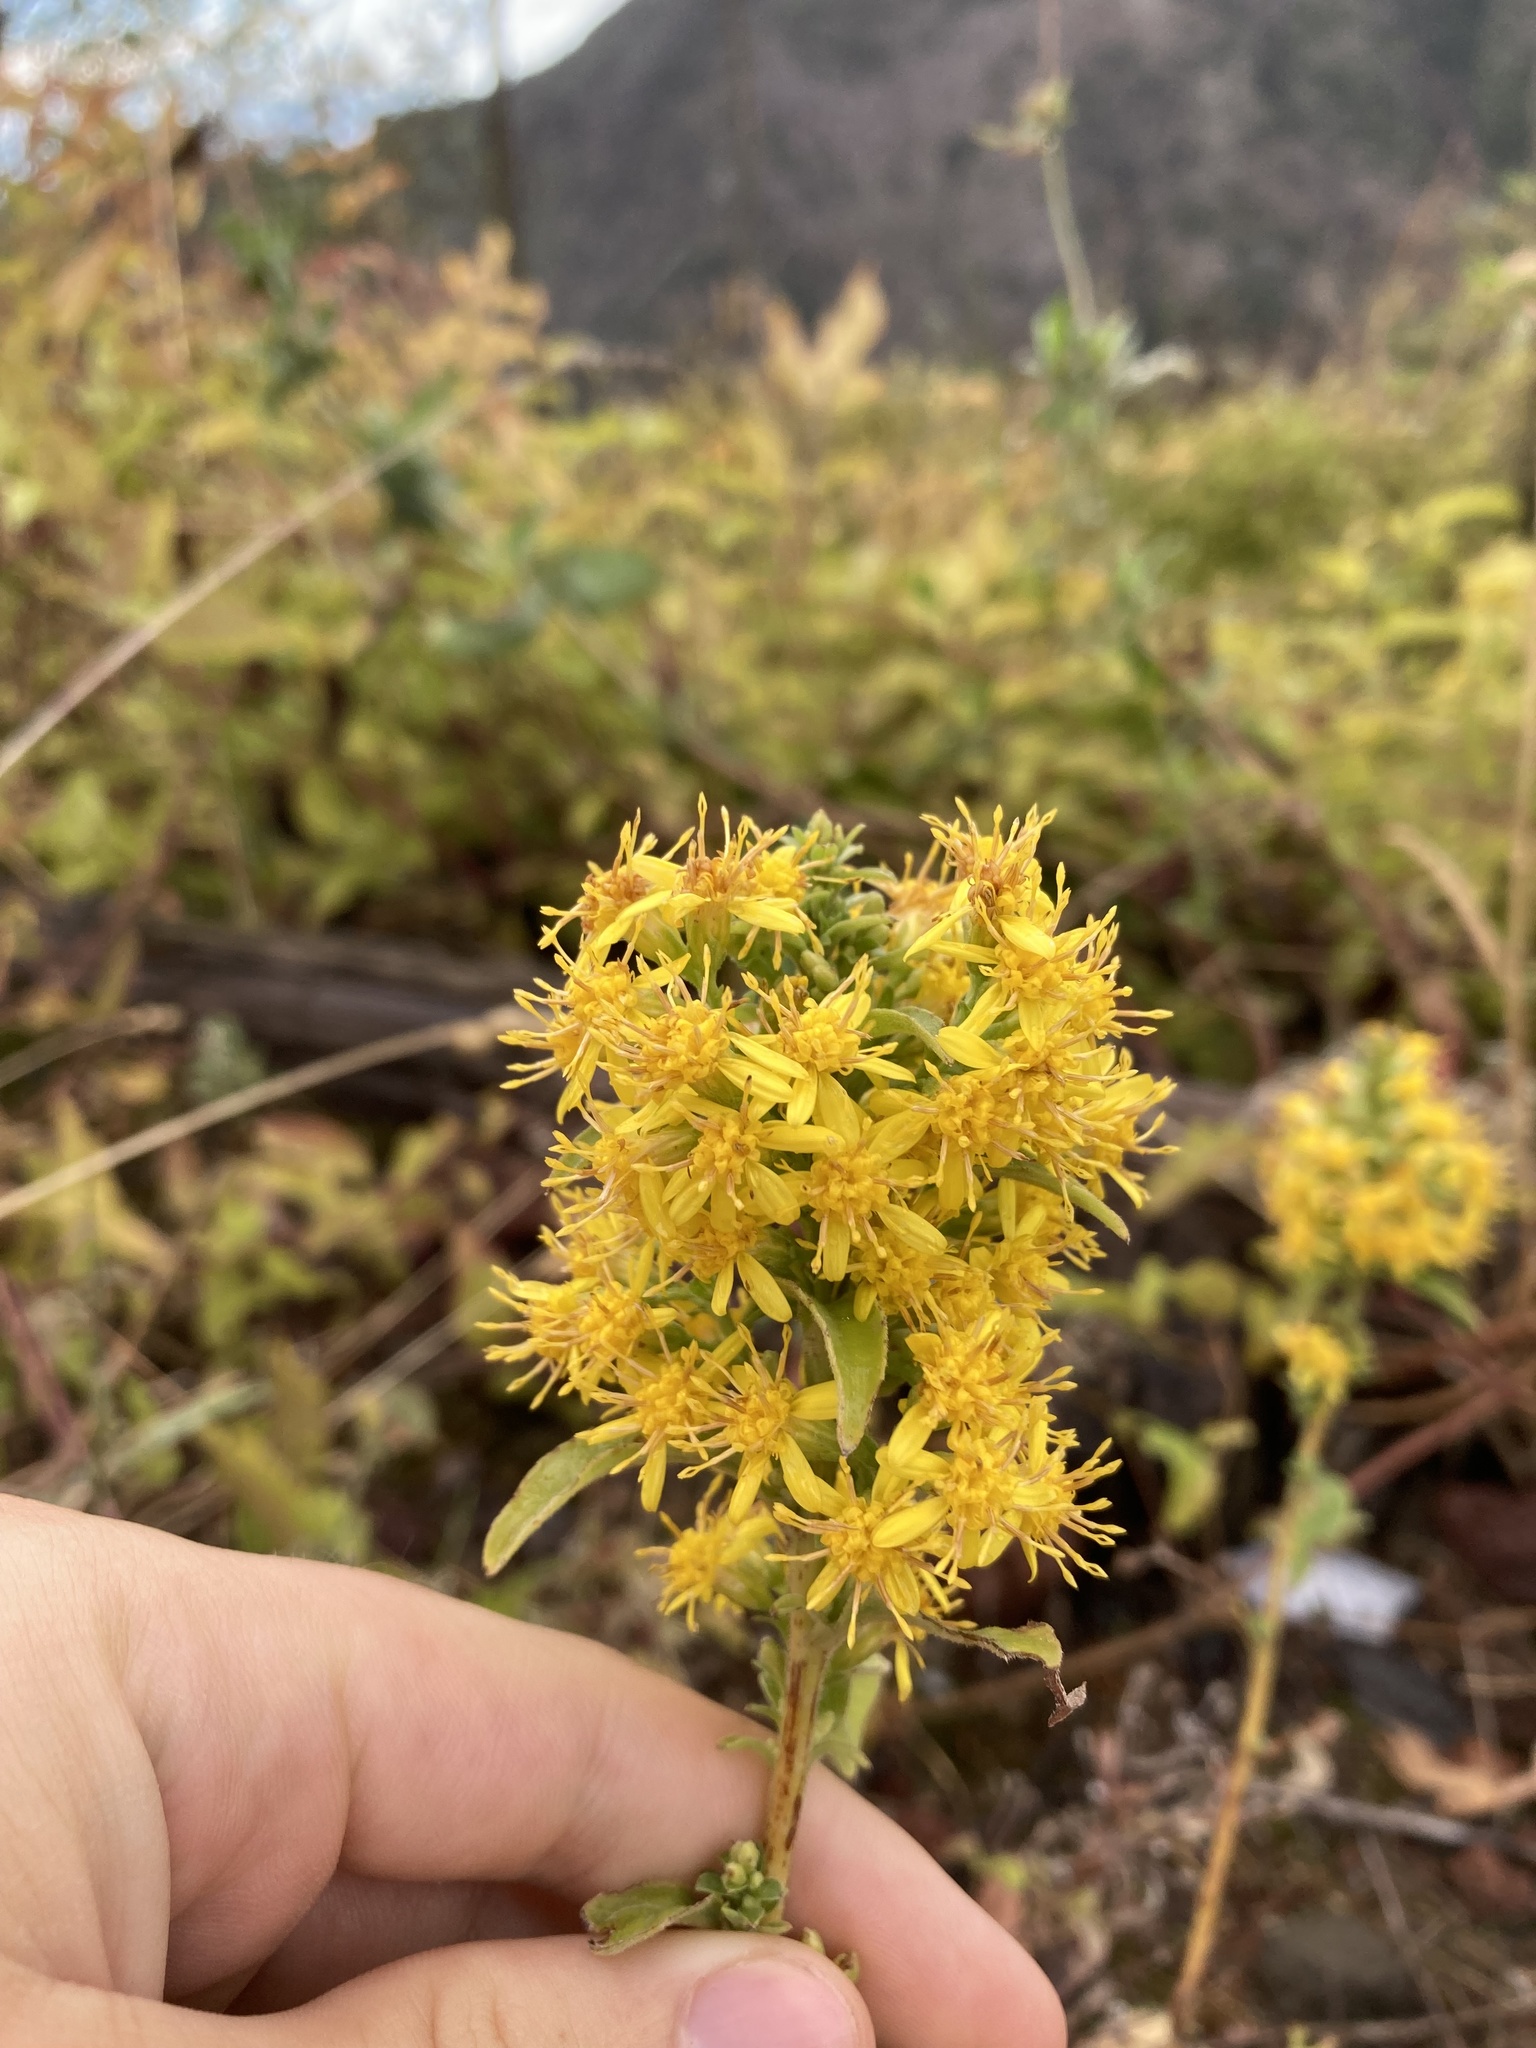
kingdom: Plantae
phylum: Tracheophyta
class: Magnoliopsida
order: Asterales
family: Asteraceae
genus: Solidago
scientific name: Solidago virgaurea
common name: Goldenrod
